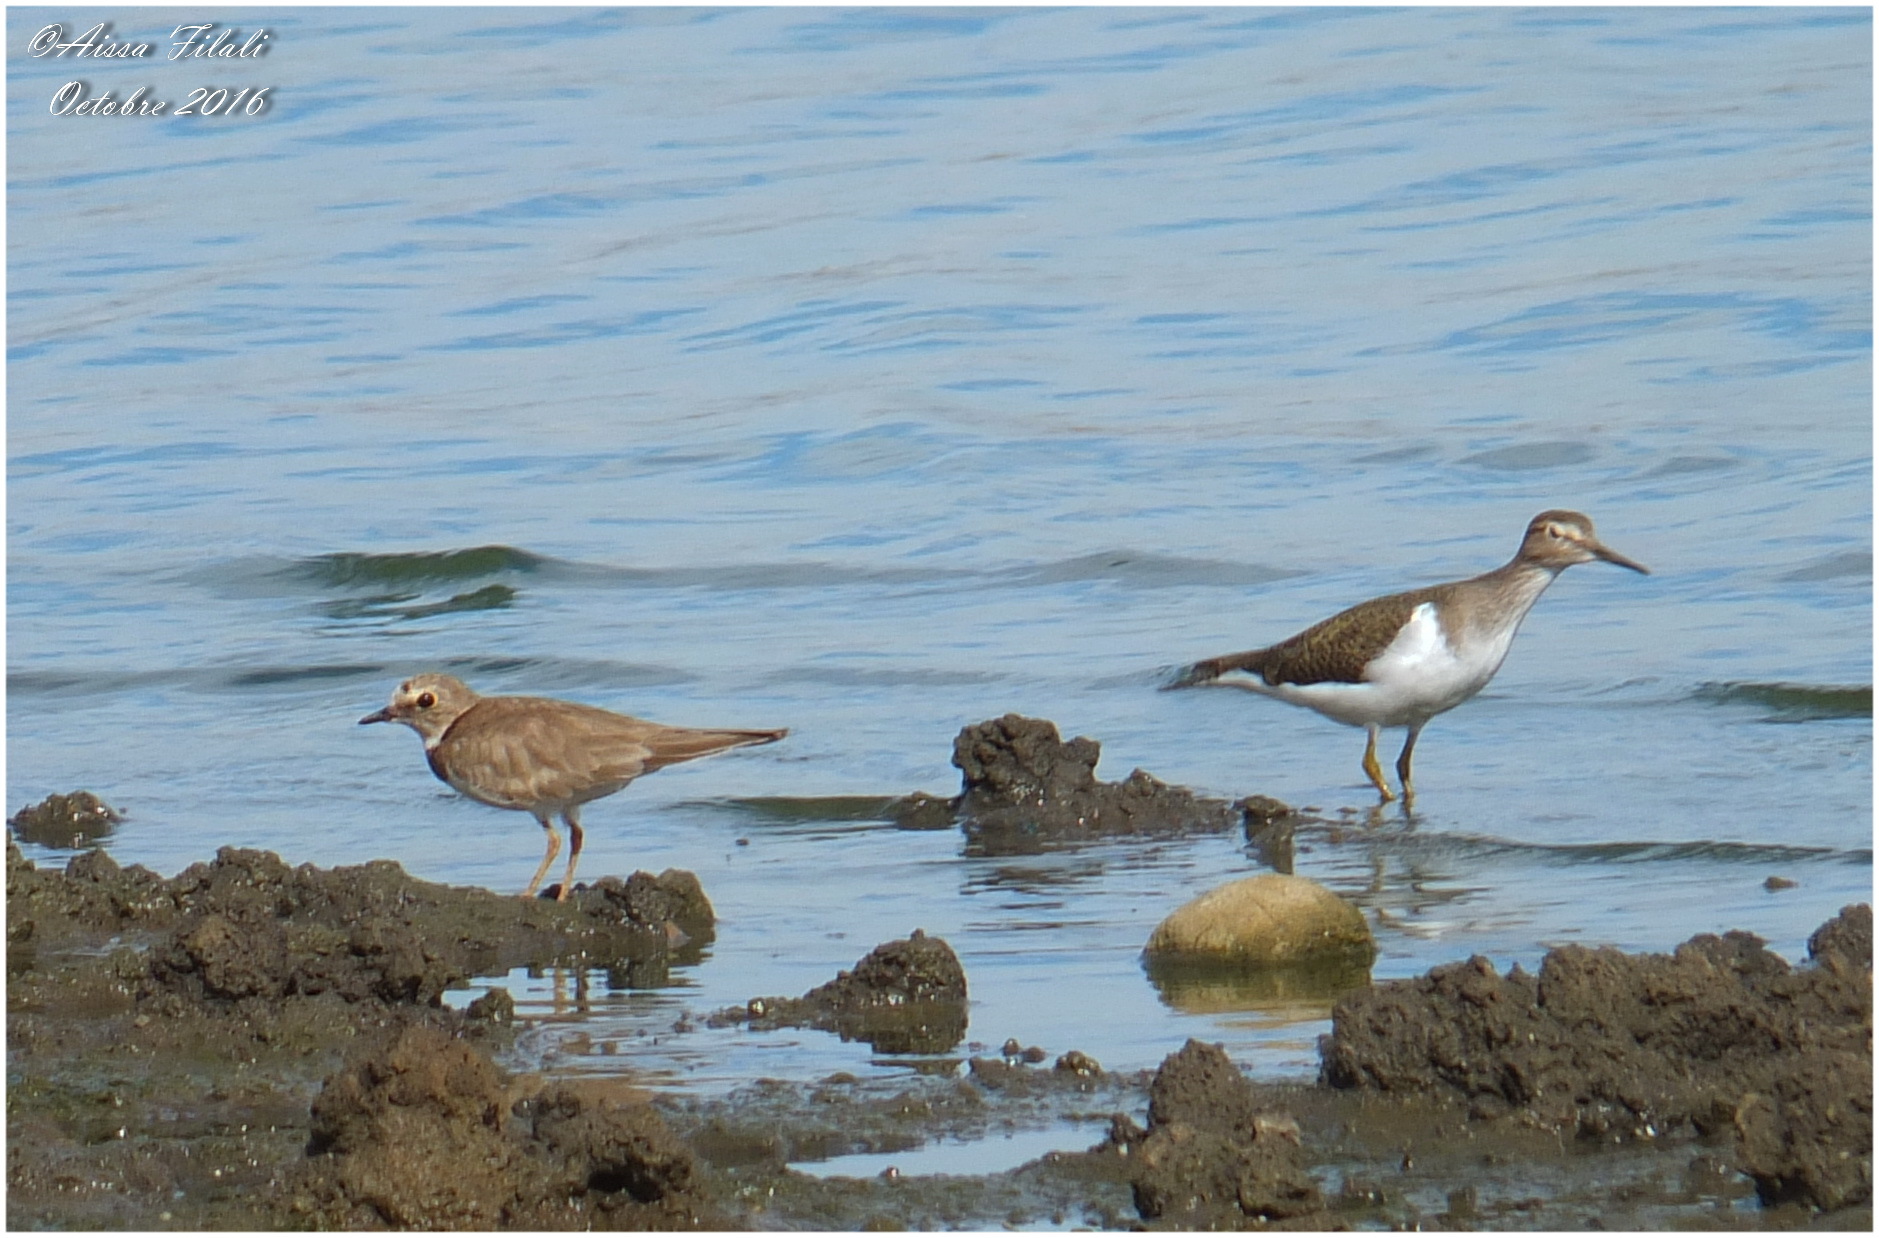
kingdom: Animalia
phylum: Chordata
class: Aves
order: Charadriiformes
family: Scolopacidae
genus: Actitis
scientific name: Actitis hypoleucos
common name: Common sandpiper
